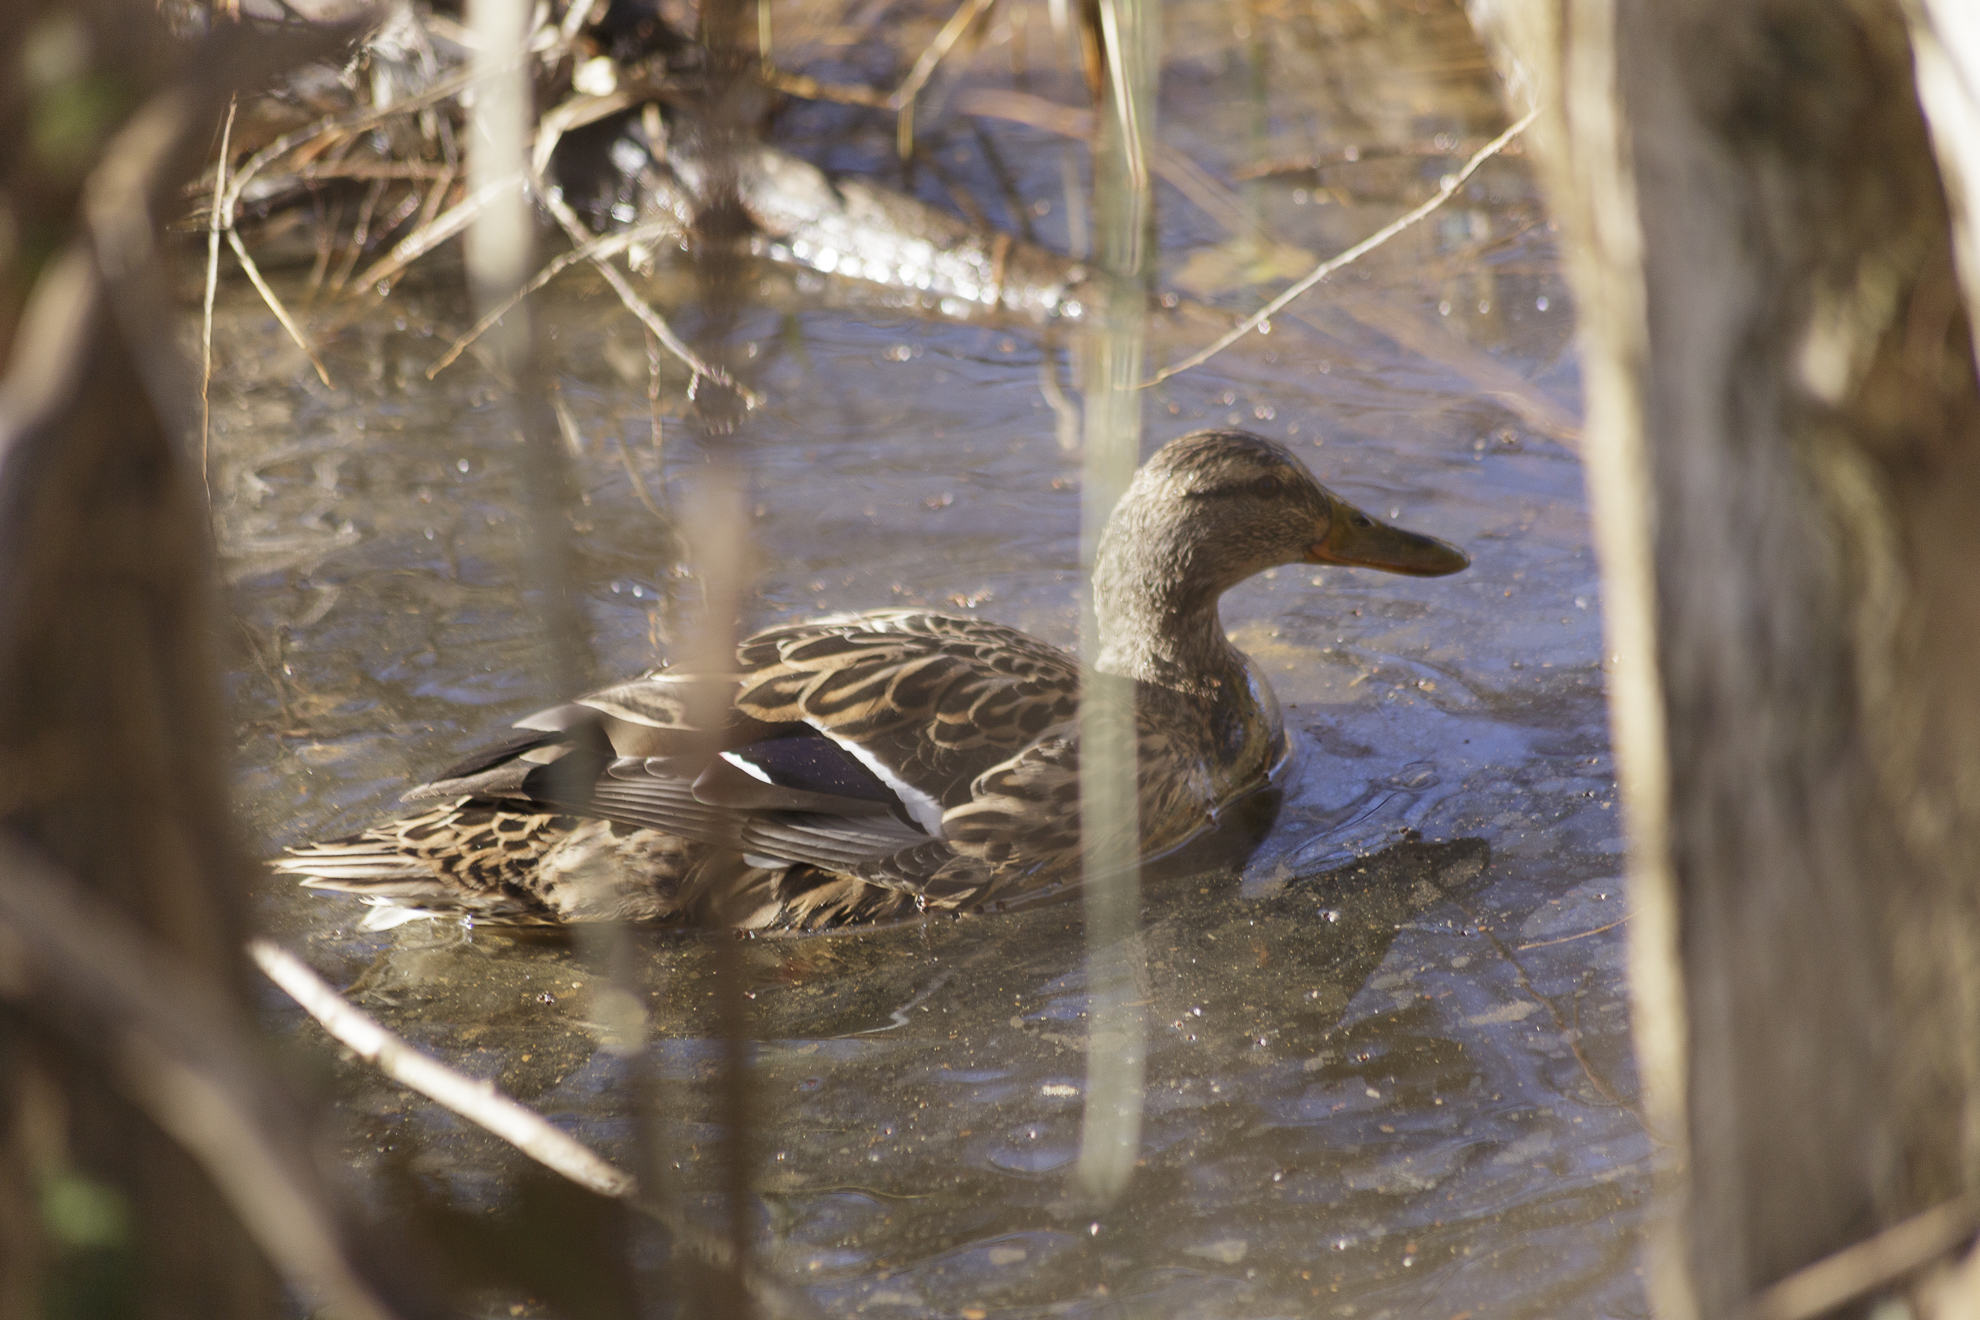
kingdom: Animalia
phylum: Chordata
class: Aves
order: Anseriformes
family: Anatidae
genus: Anas
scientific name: Anas platyrhynchos
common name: Mallard
